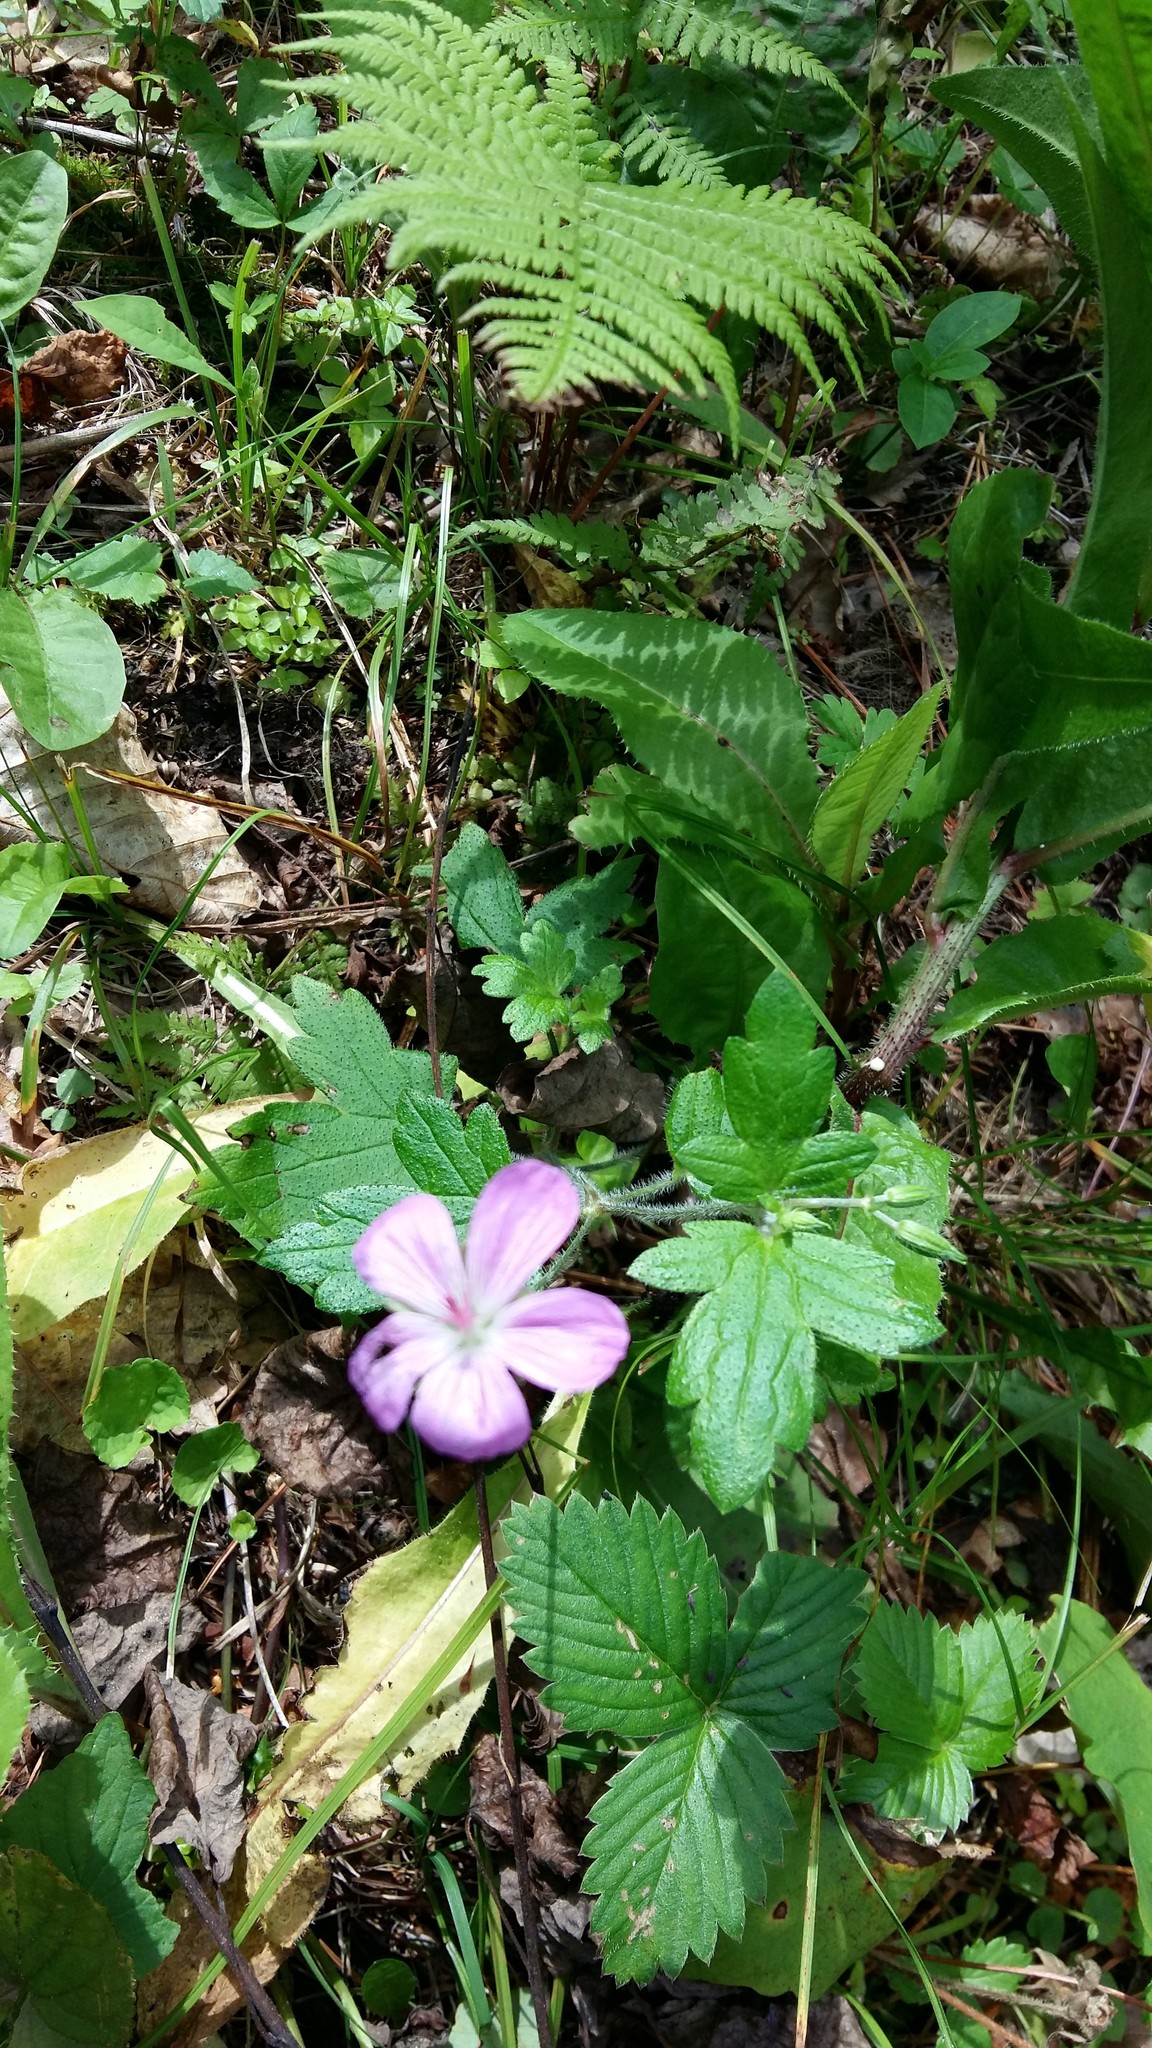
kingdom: Plantae
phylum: Tracheophyta
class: Magnoliopsida
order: Geraniales
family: Geraniaceae
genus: Geranium
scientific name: Geranium maximowiczii
